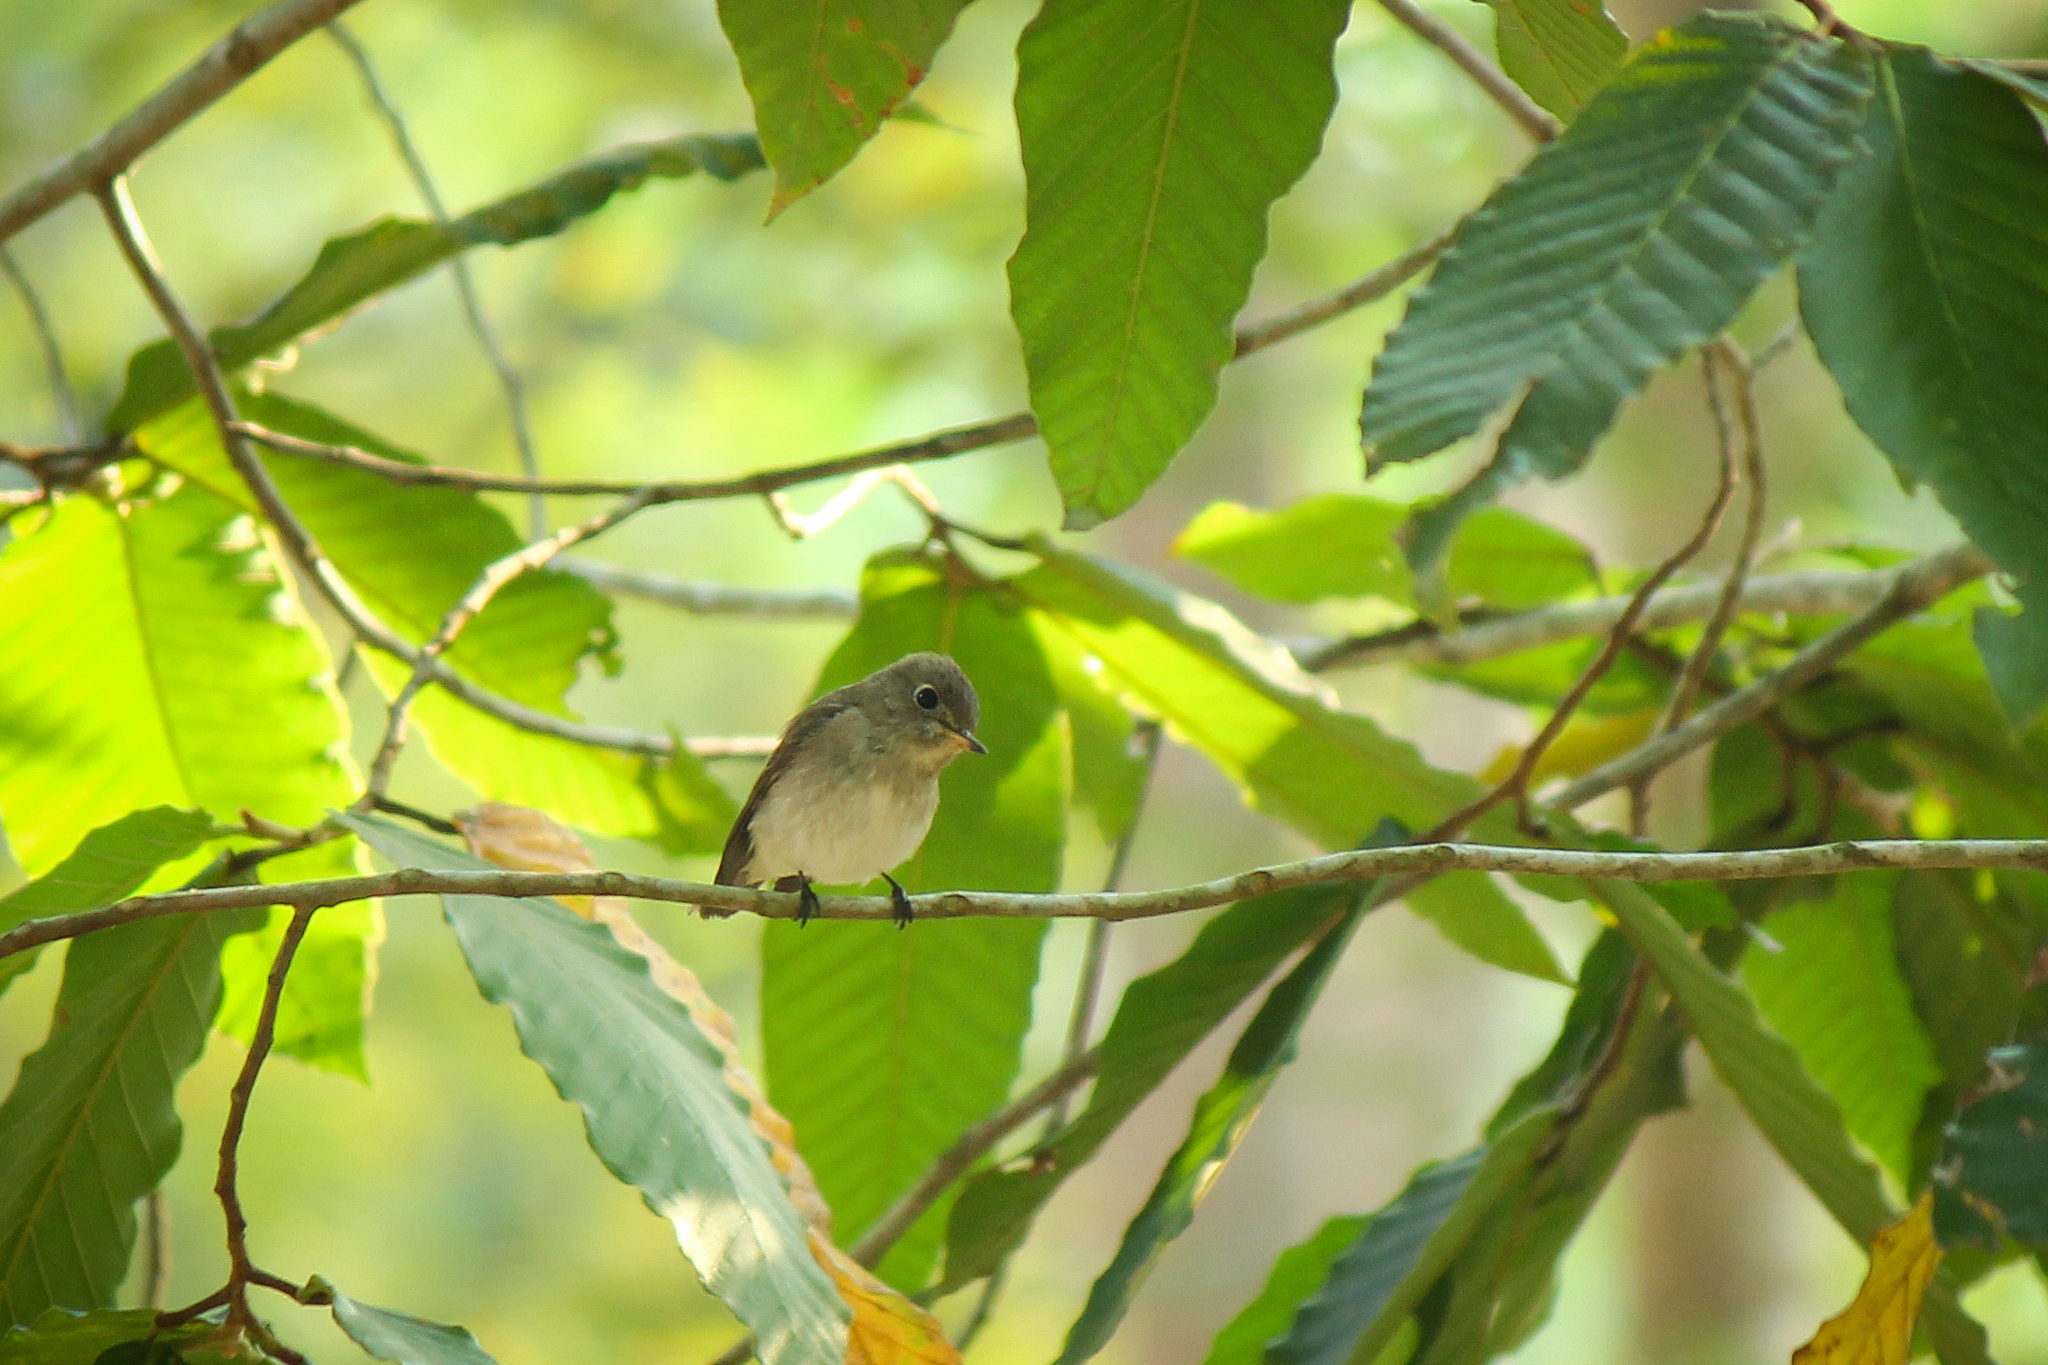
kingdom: Animalia
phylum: Chordata
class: Aves
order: Passeriformes
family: Muscicapidae
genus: Muscicapa
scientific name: Muscicapa latirostris
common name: Asian brown flycatcher
